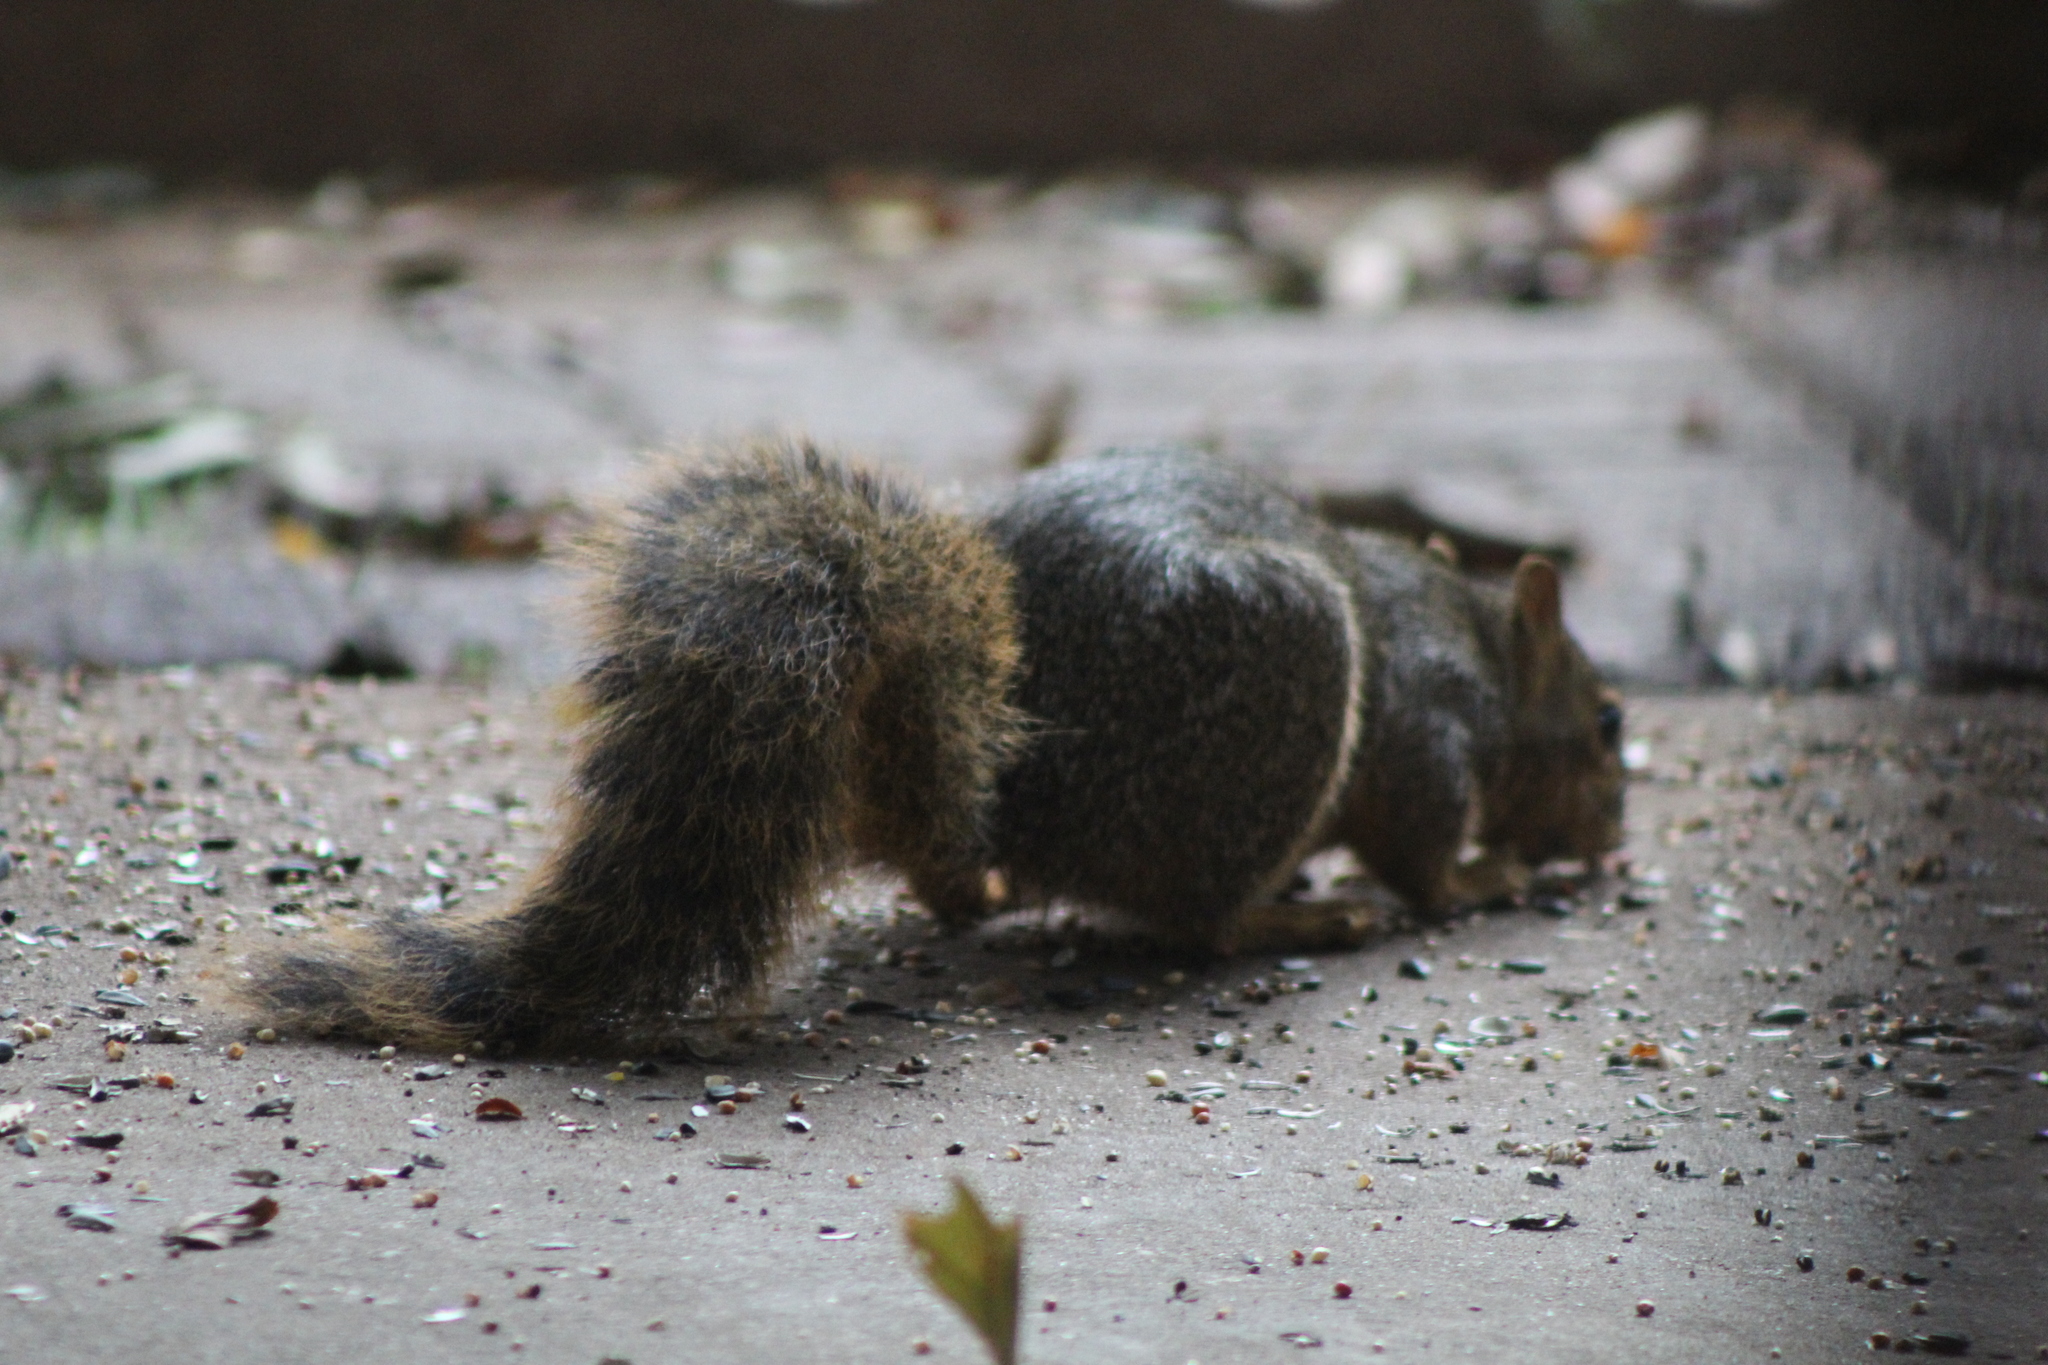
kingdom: Animalia
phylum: Chordata
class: Mammalia
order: Rodentia
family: Sciuridae
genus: Sciurus
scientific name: Sciurus niger
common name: Fox squirrel
